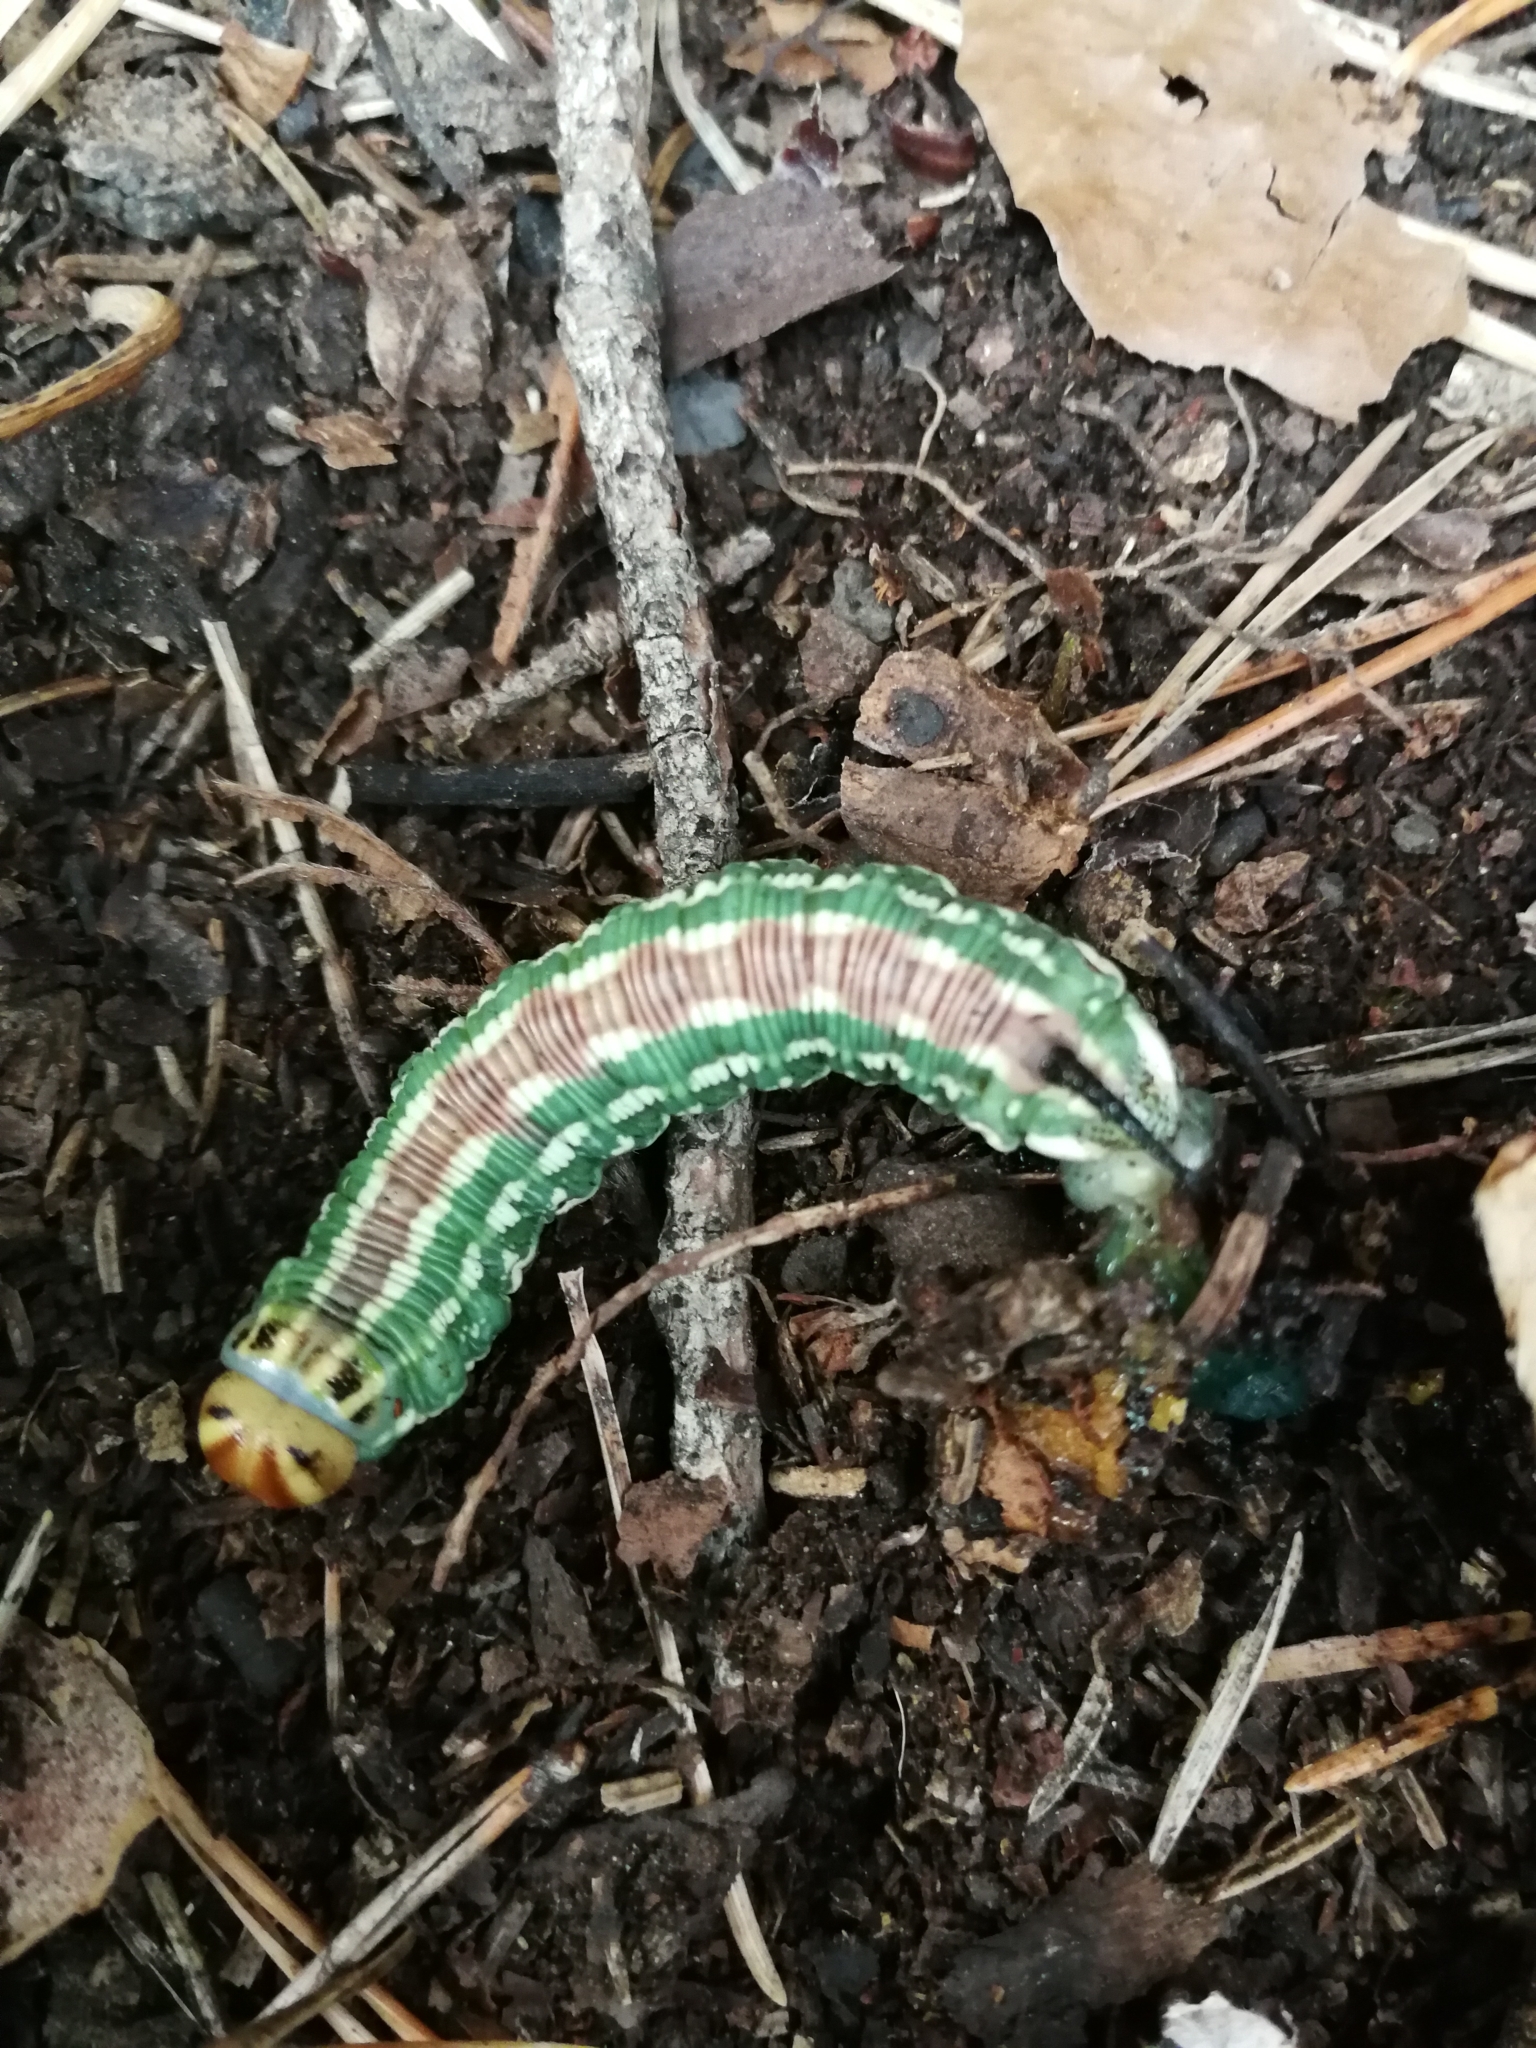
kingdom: Animalia
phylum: Arthropoda
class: Insecta
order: Lepidoptera
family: Sphingidae
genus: Sphinx
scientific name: Sphinx pinastri
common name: Pine hawk-moth
